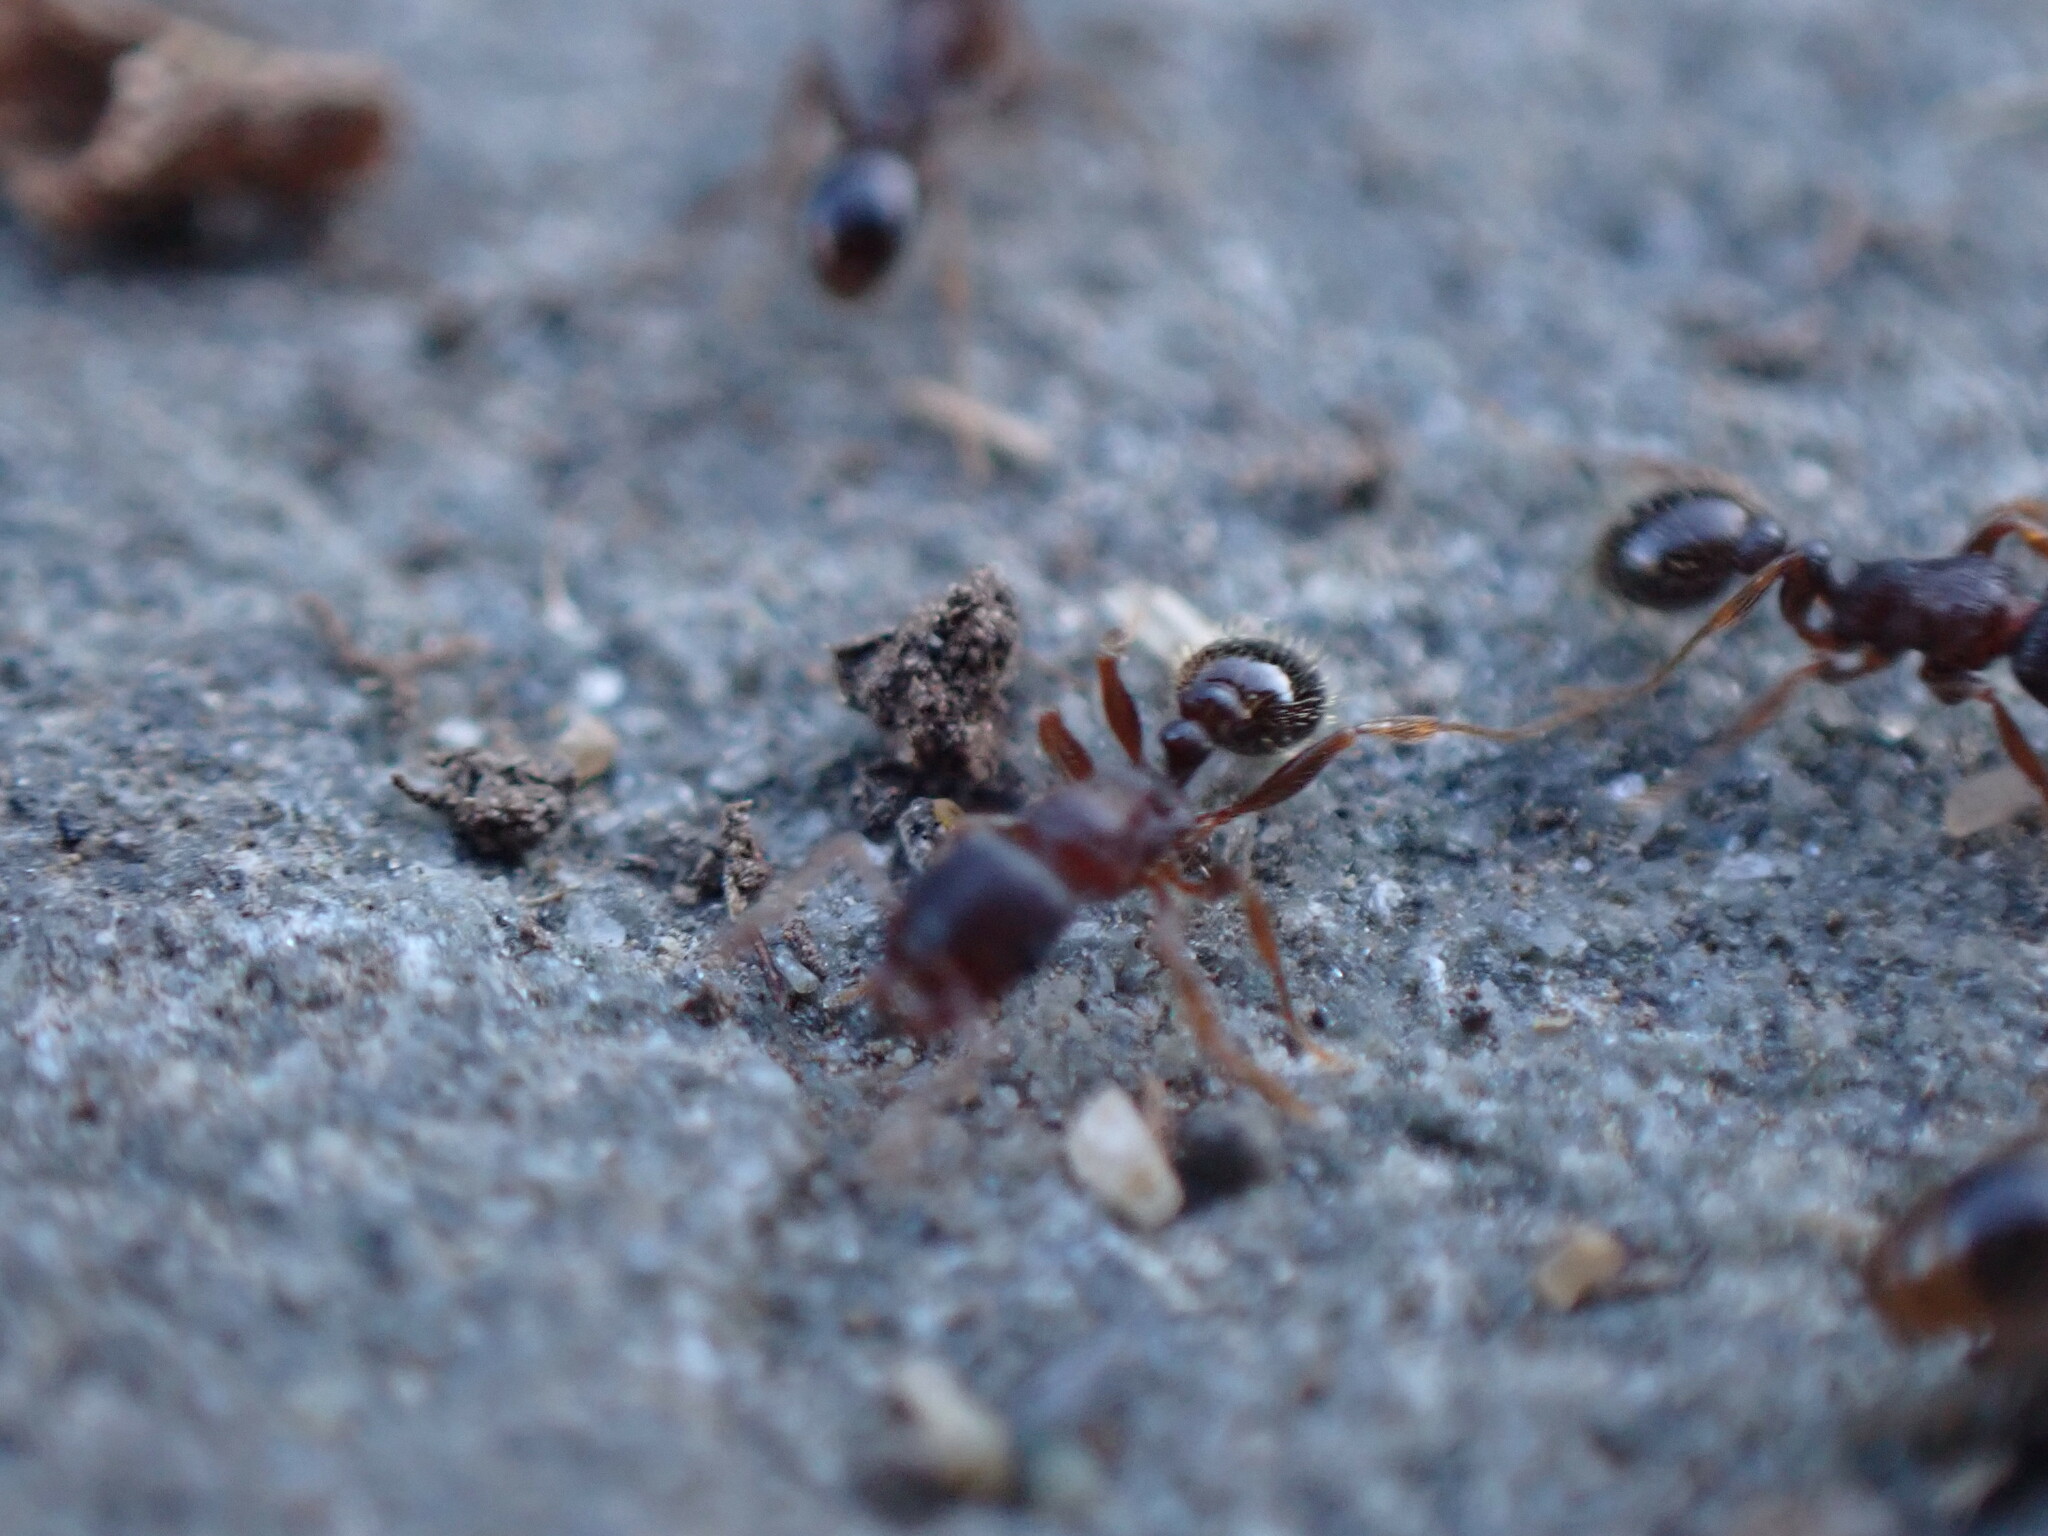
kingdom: Animalia
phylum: Arthropoda
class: Insecta
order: Hymenoptera
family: Formicidae
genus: Tetramorium
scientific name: Tetramorium immigrans
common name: Pavement ant
